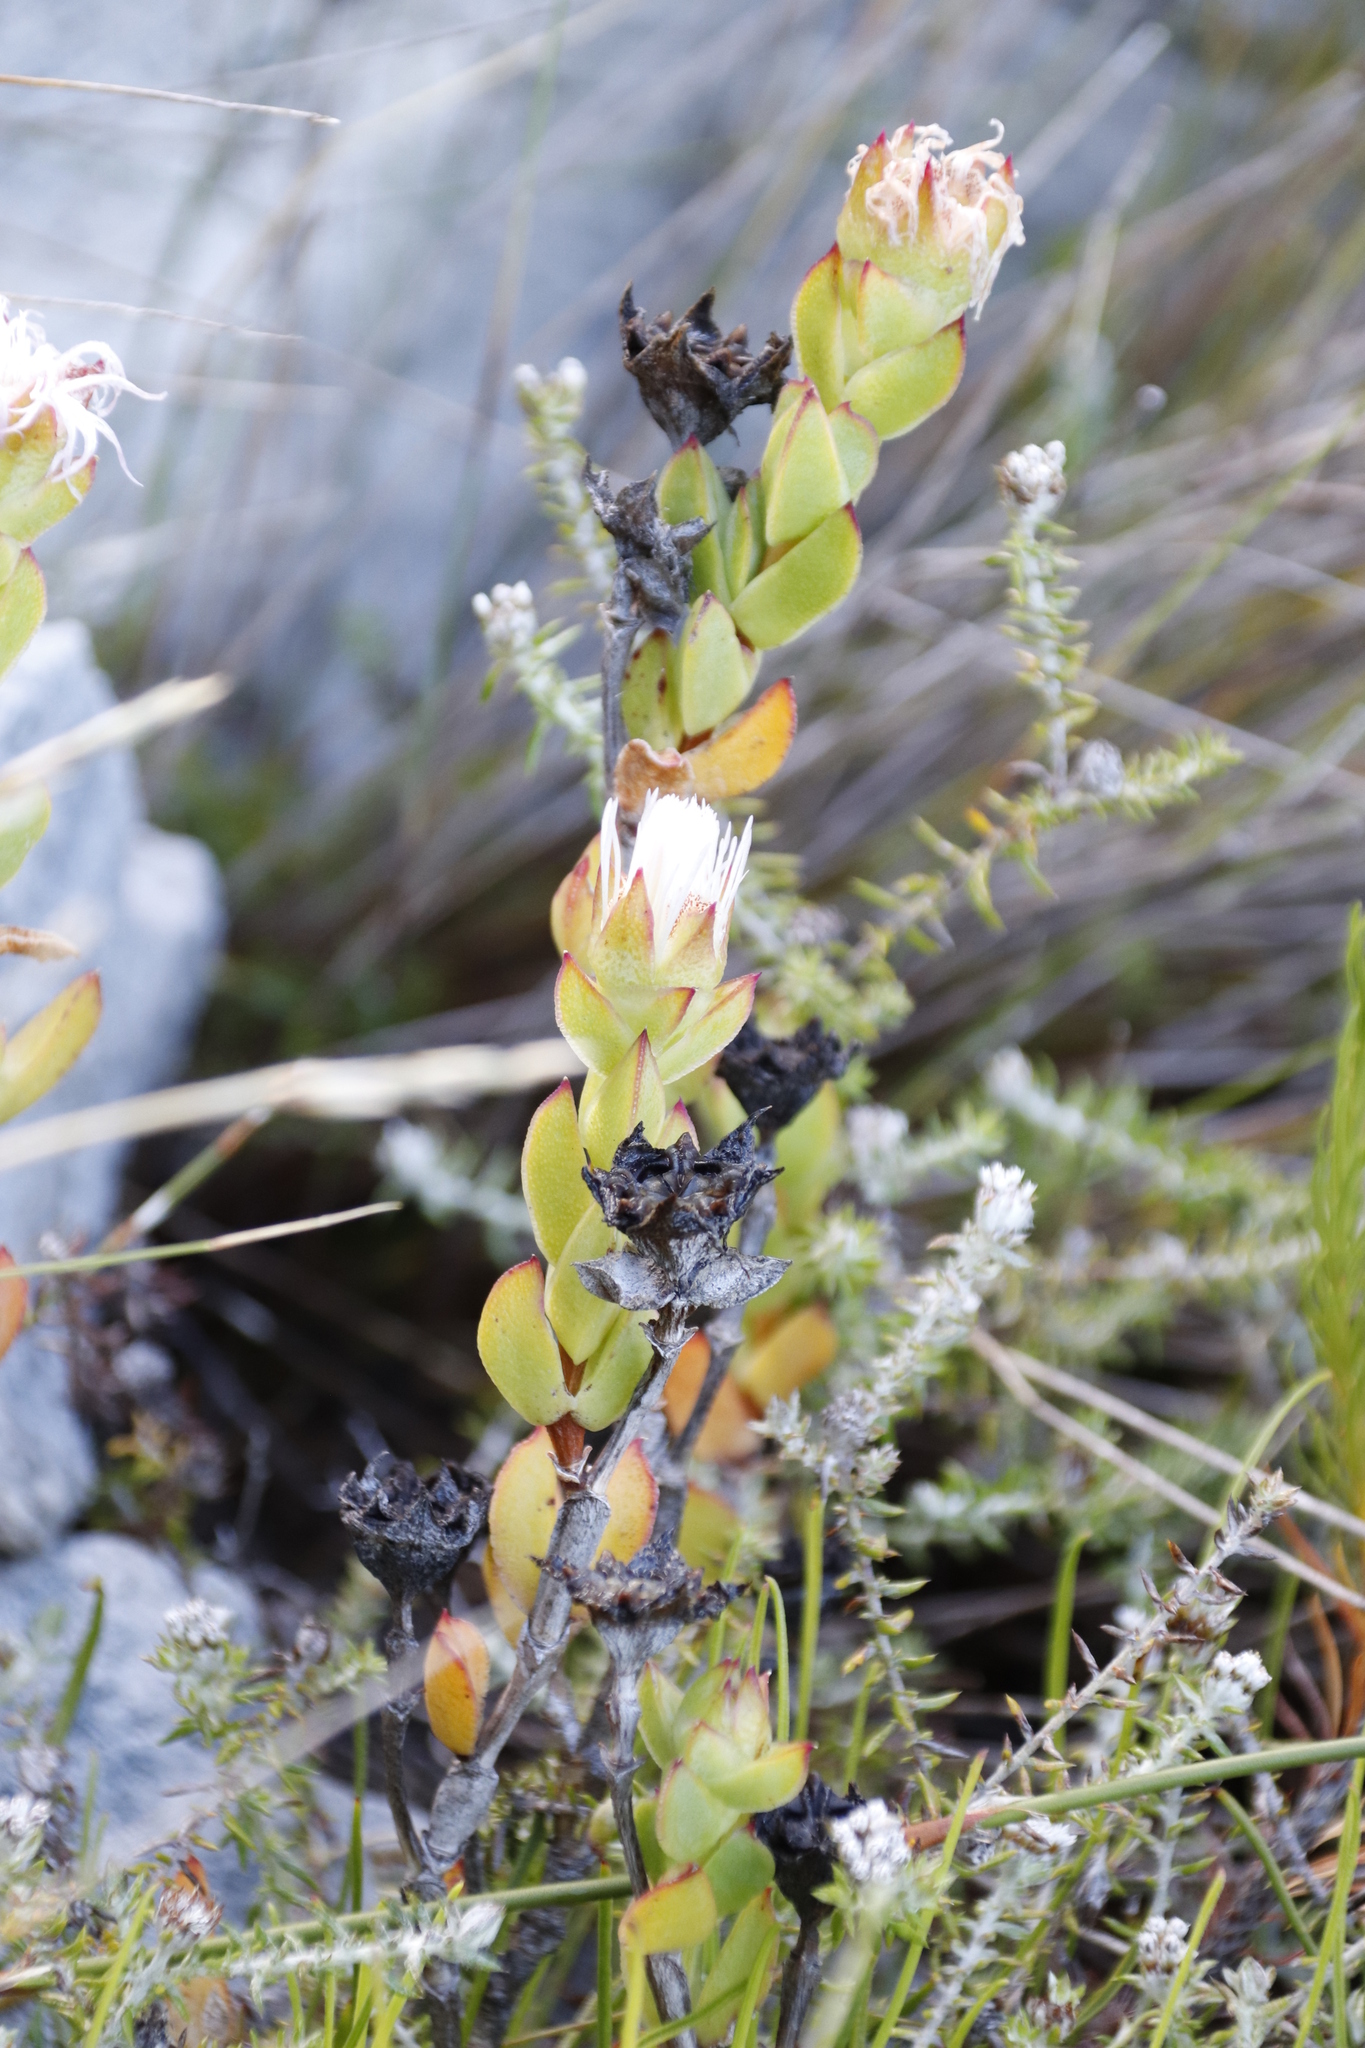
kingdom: Plantae
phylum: Tracheophyta
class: Magnoliopsida
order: Caryophyllales
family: Aizoaceae
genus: Erepsia
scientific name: Erepsia forficata
